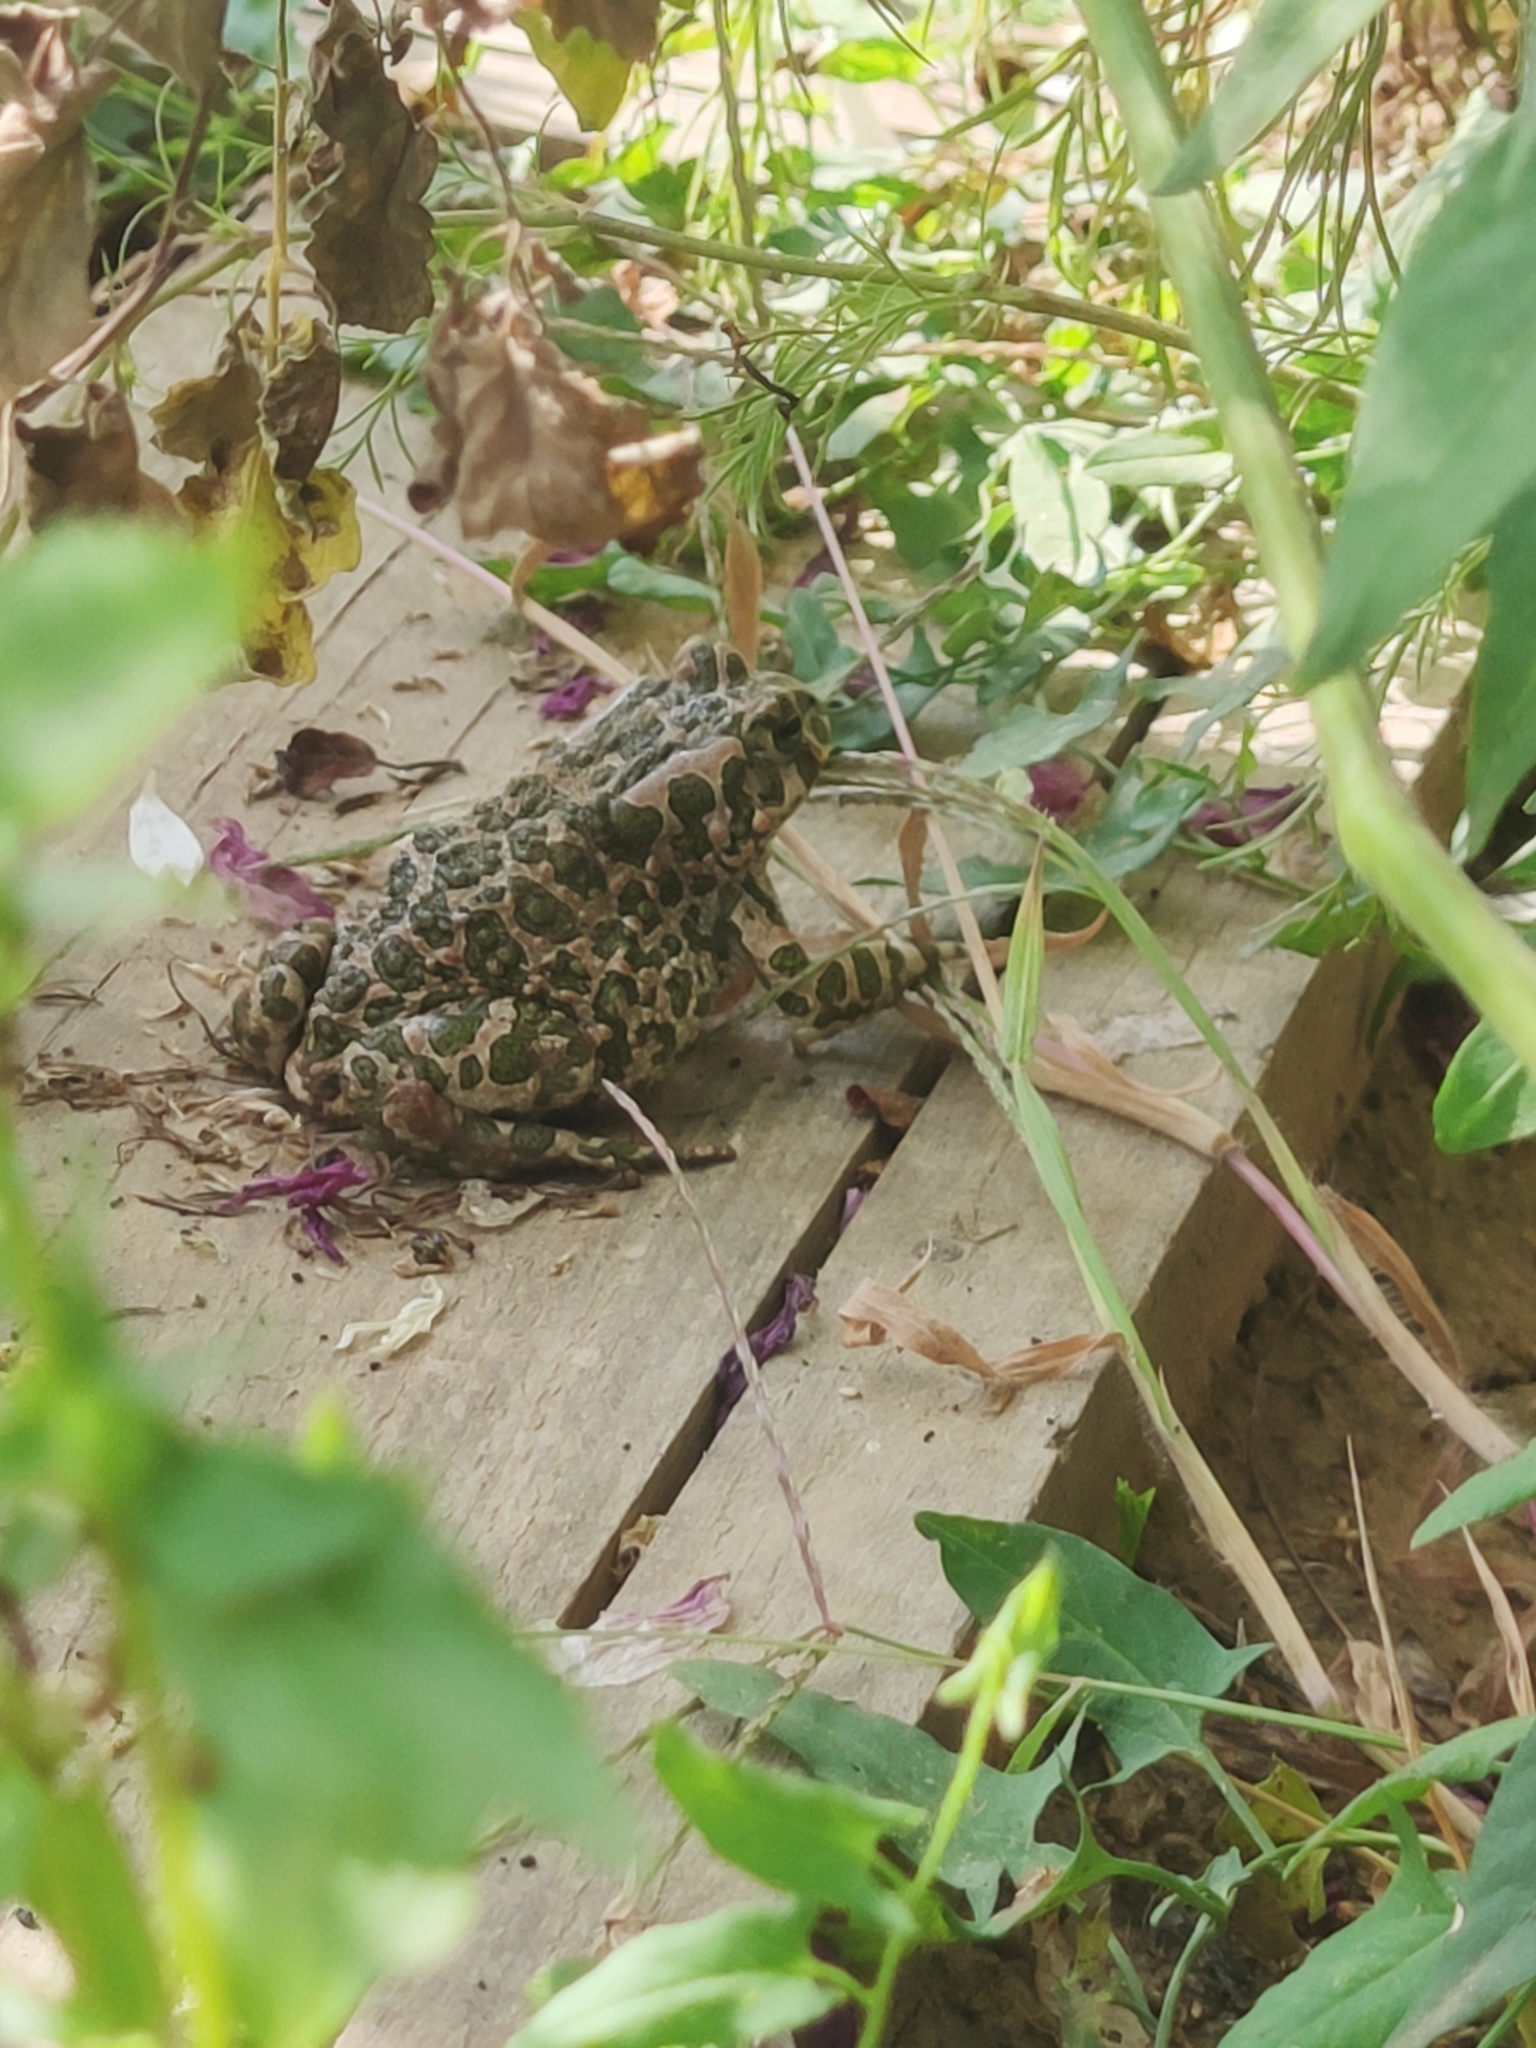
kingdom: Animalia
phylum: Chordata
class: Amphibia
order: Anura
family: Bufonidae
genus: Bufotes
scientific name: Bufotes viridis
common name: European green toad
